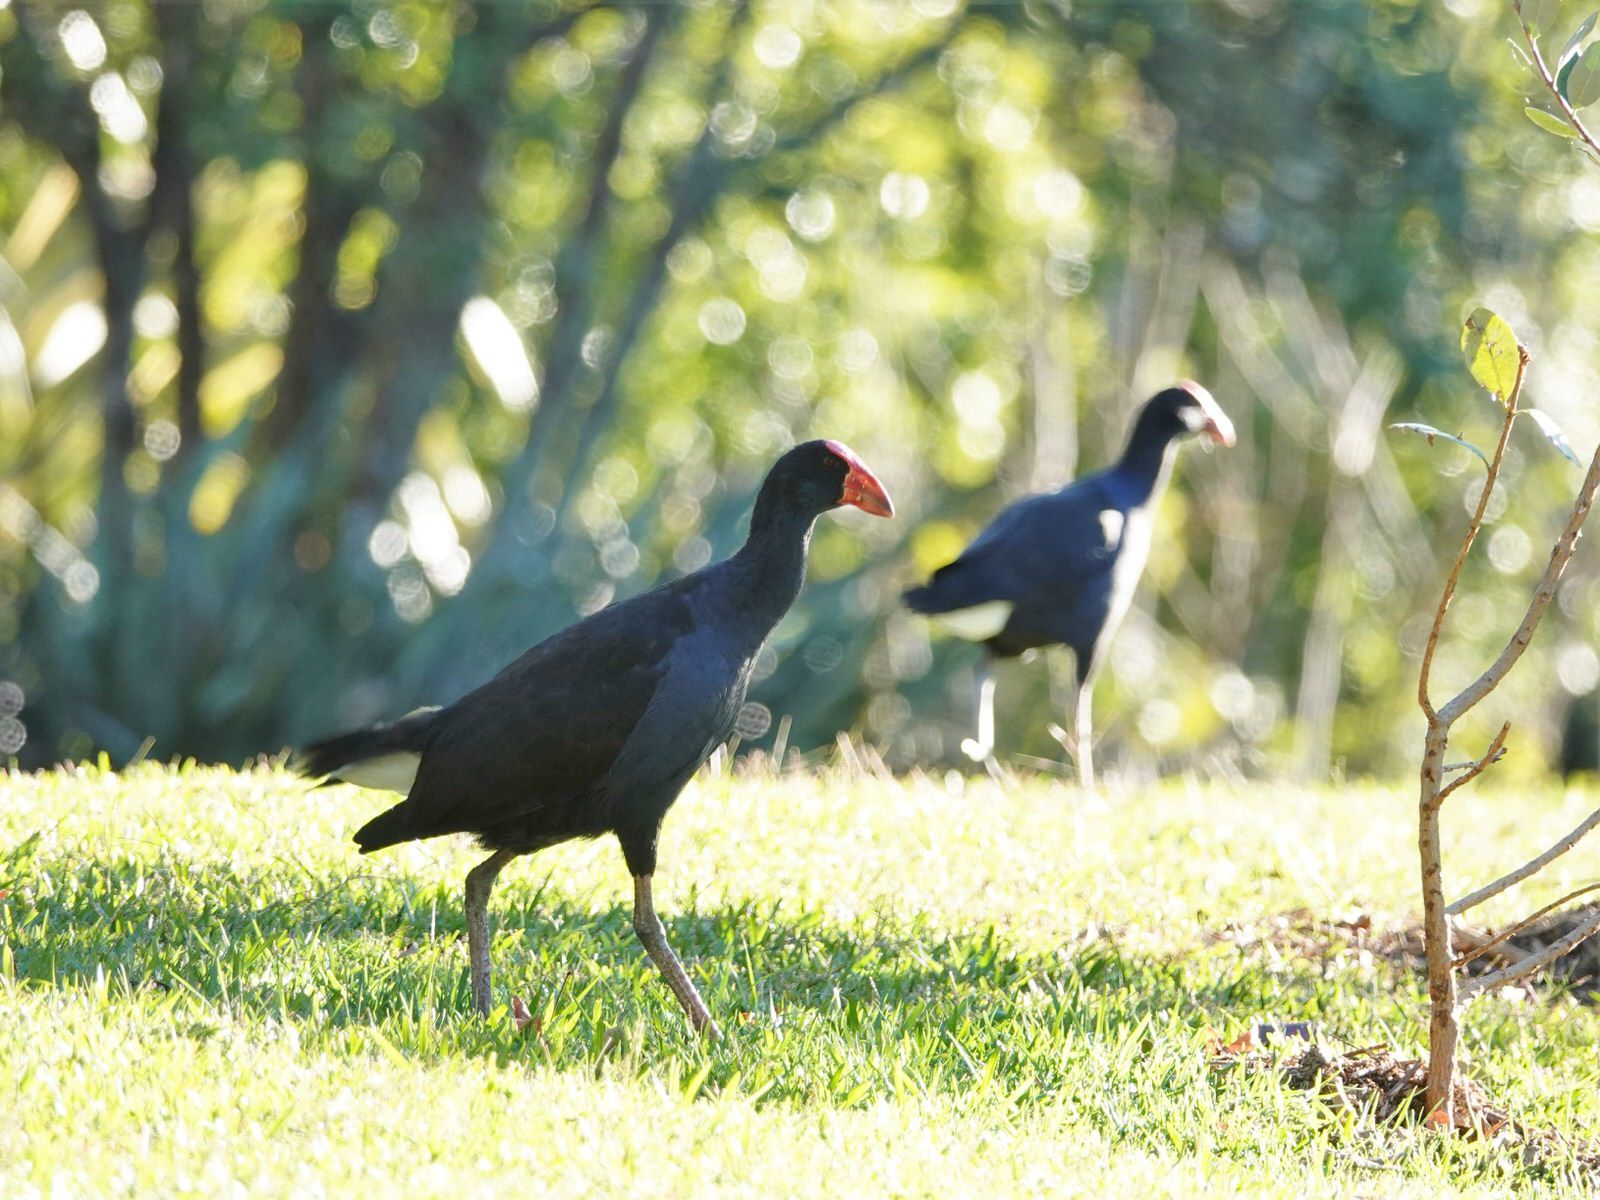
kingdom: Animalia
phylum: Chordata
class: Aves
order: Gruiformes
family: Rallidae
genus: Porphyrio
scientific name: Porphyrio melanotus
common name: Australasian swamphen
